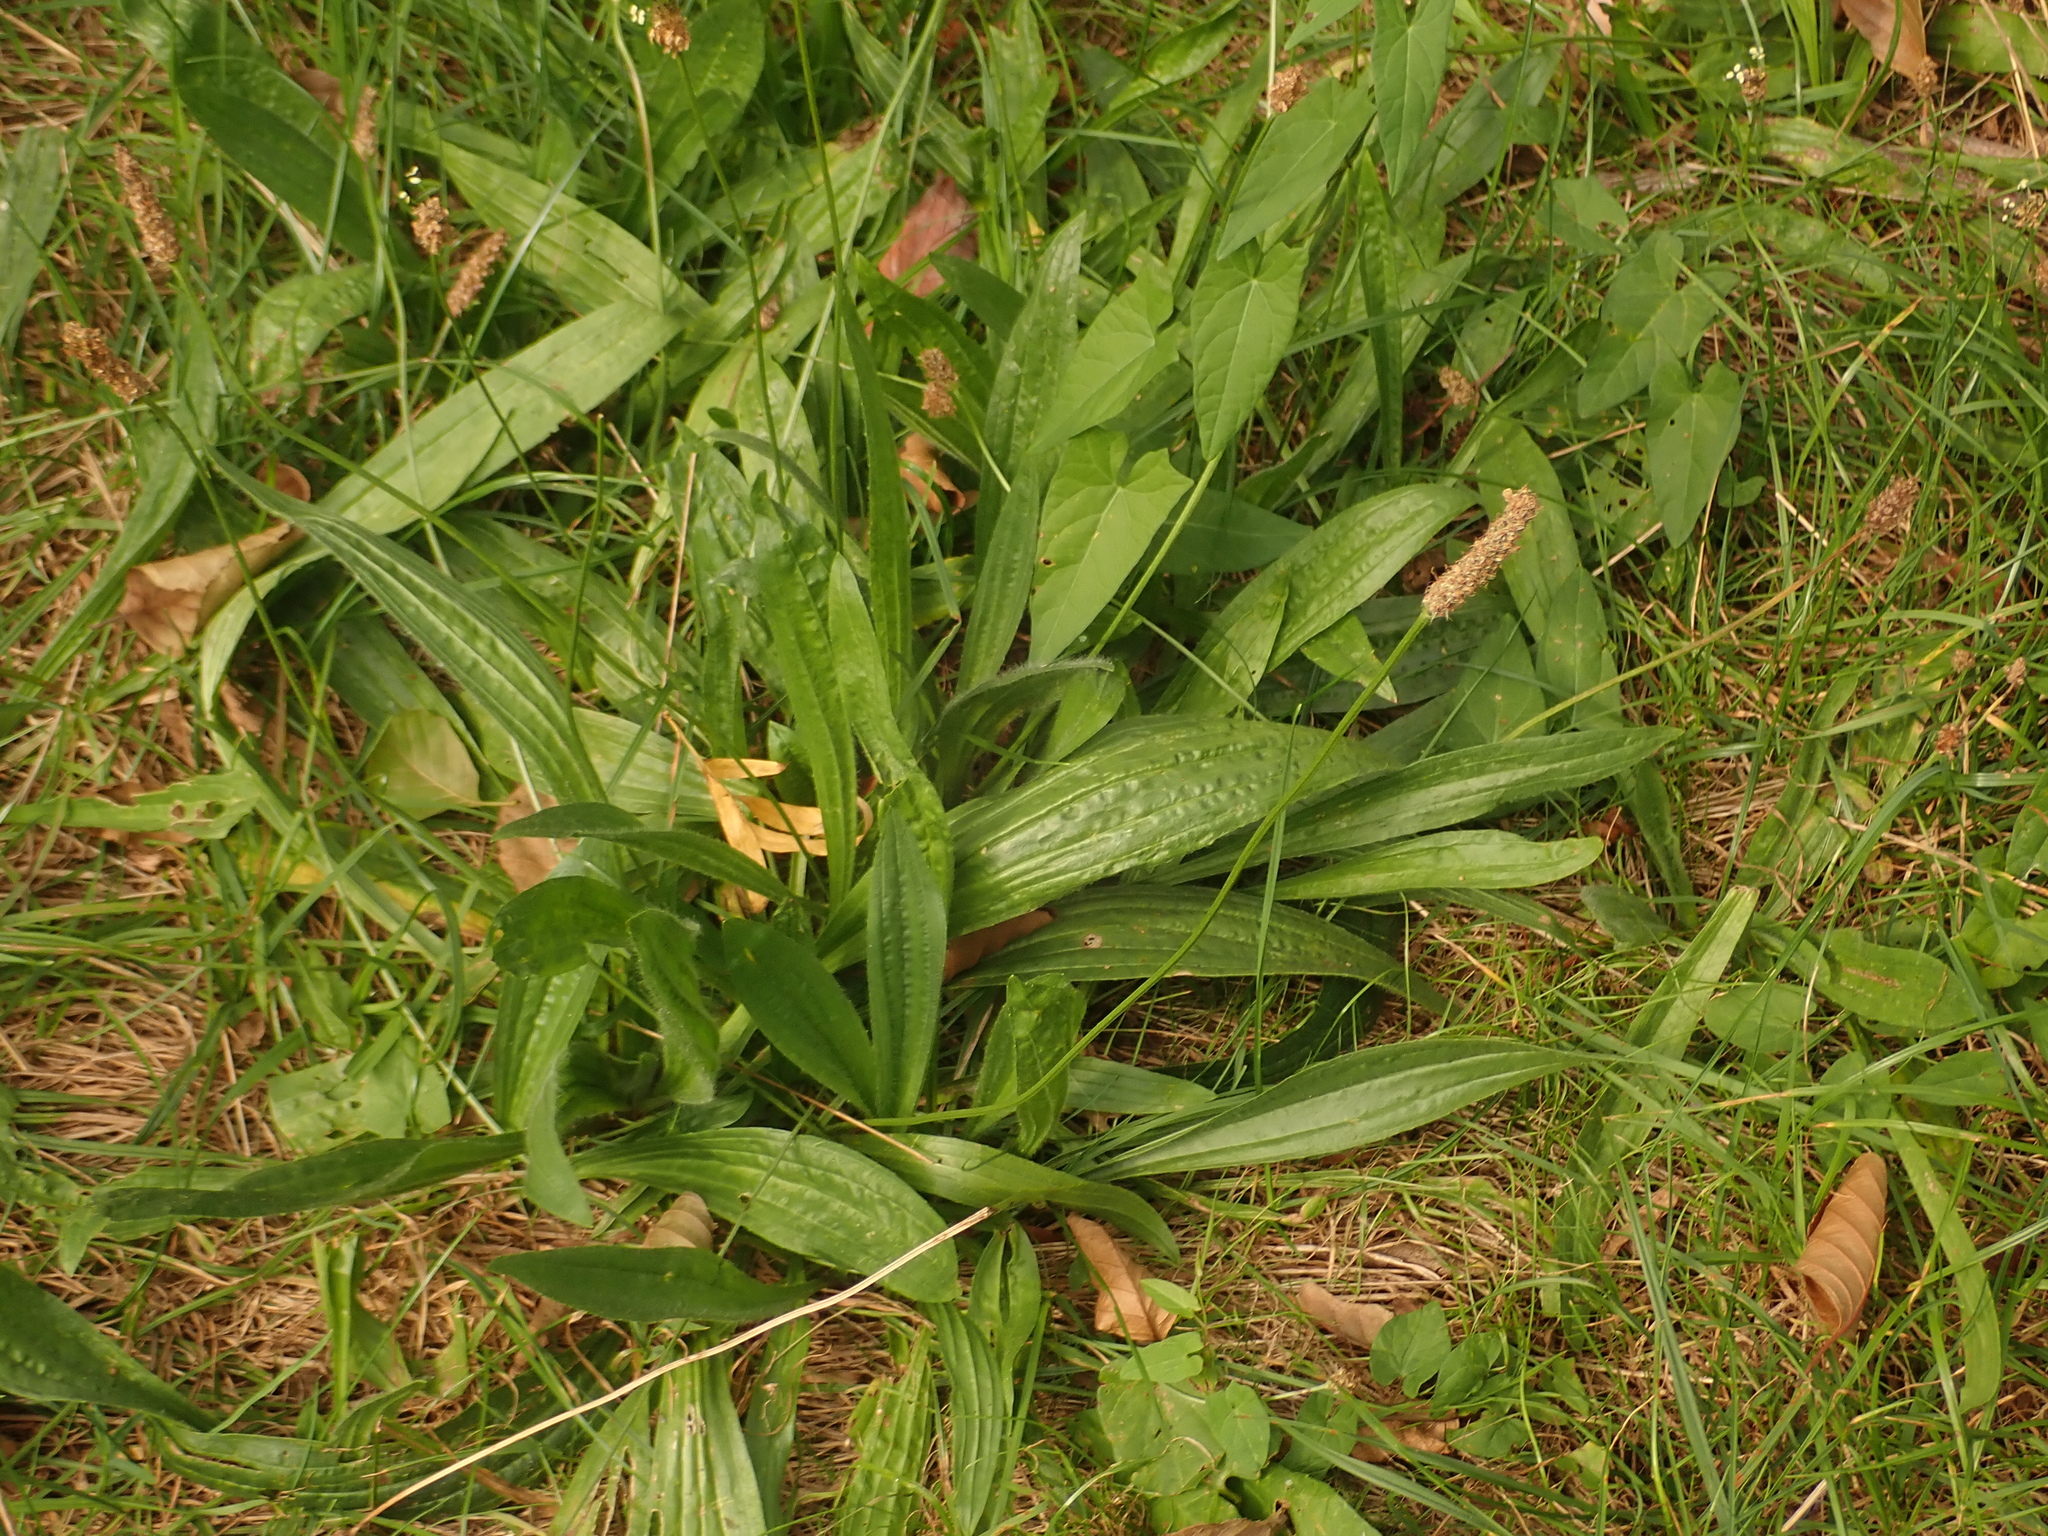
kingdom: Plantae
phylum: Tracheophyta
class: Magnoliopsida
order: Lamiales
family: Plantaginaceae
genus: Plantago
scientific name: Plantago lanceolata
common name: Ribwort plantain
